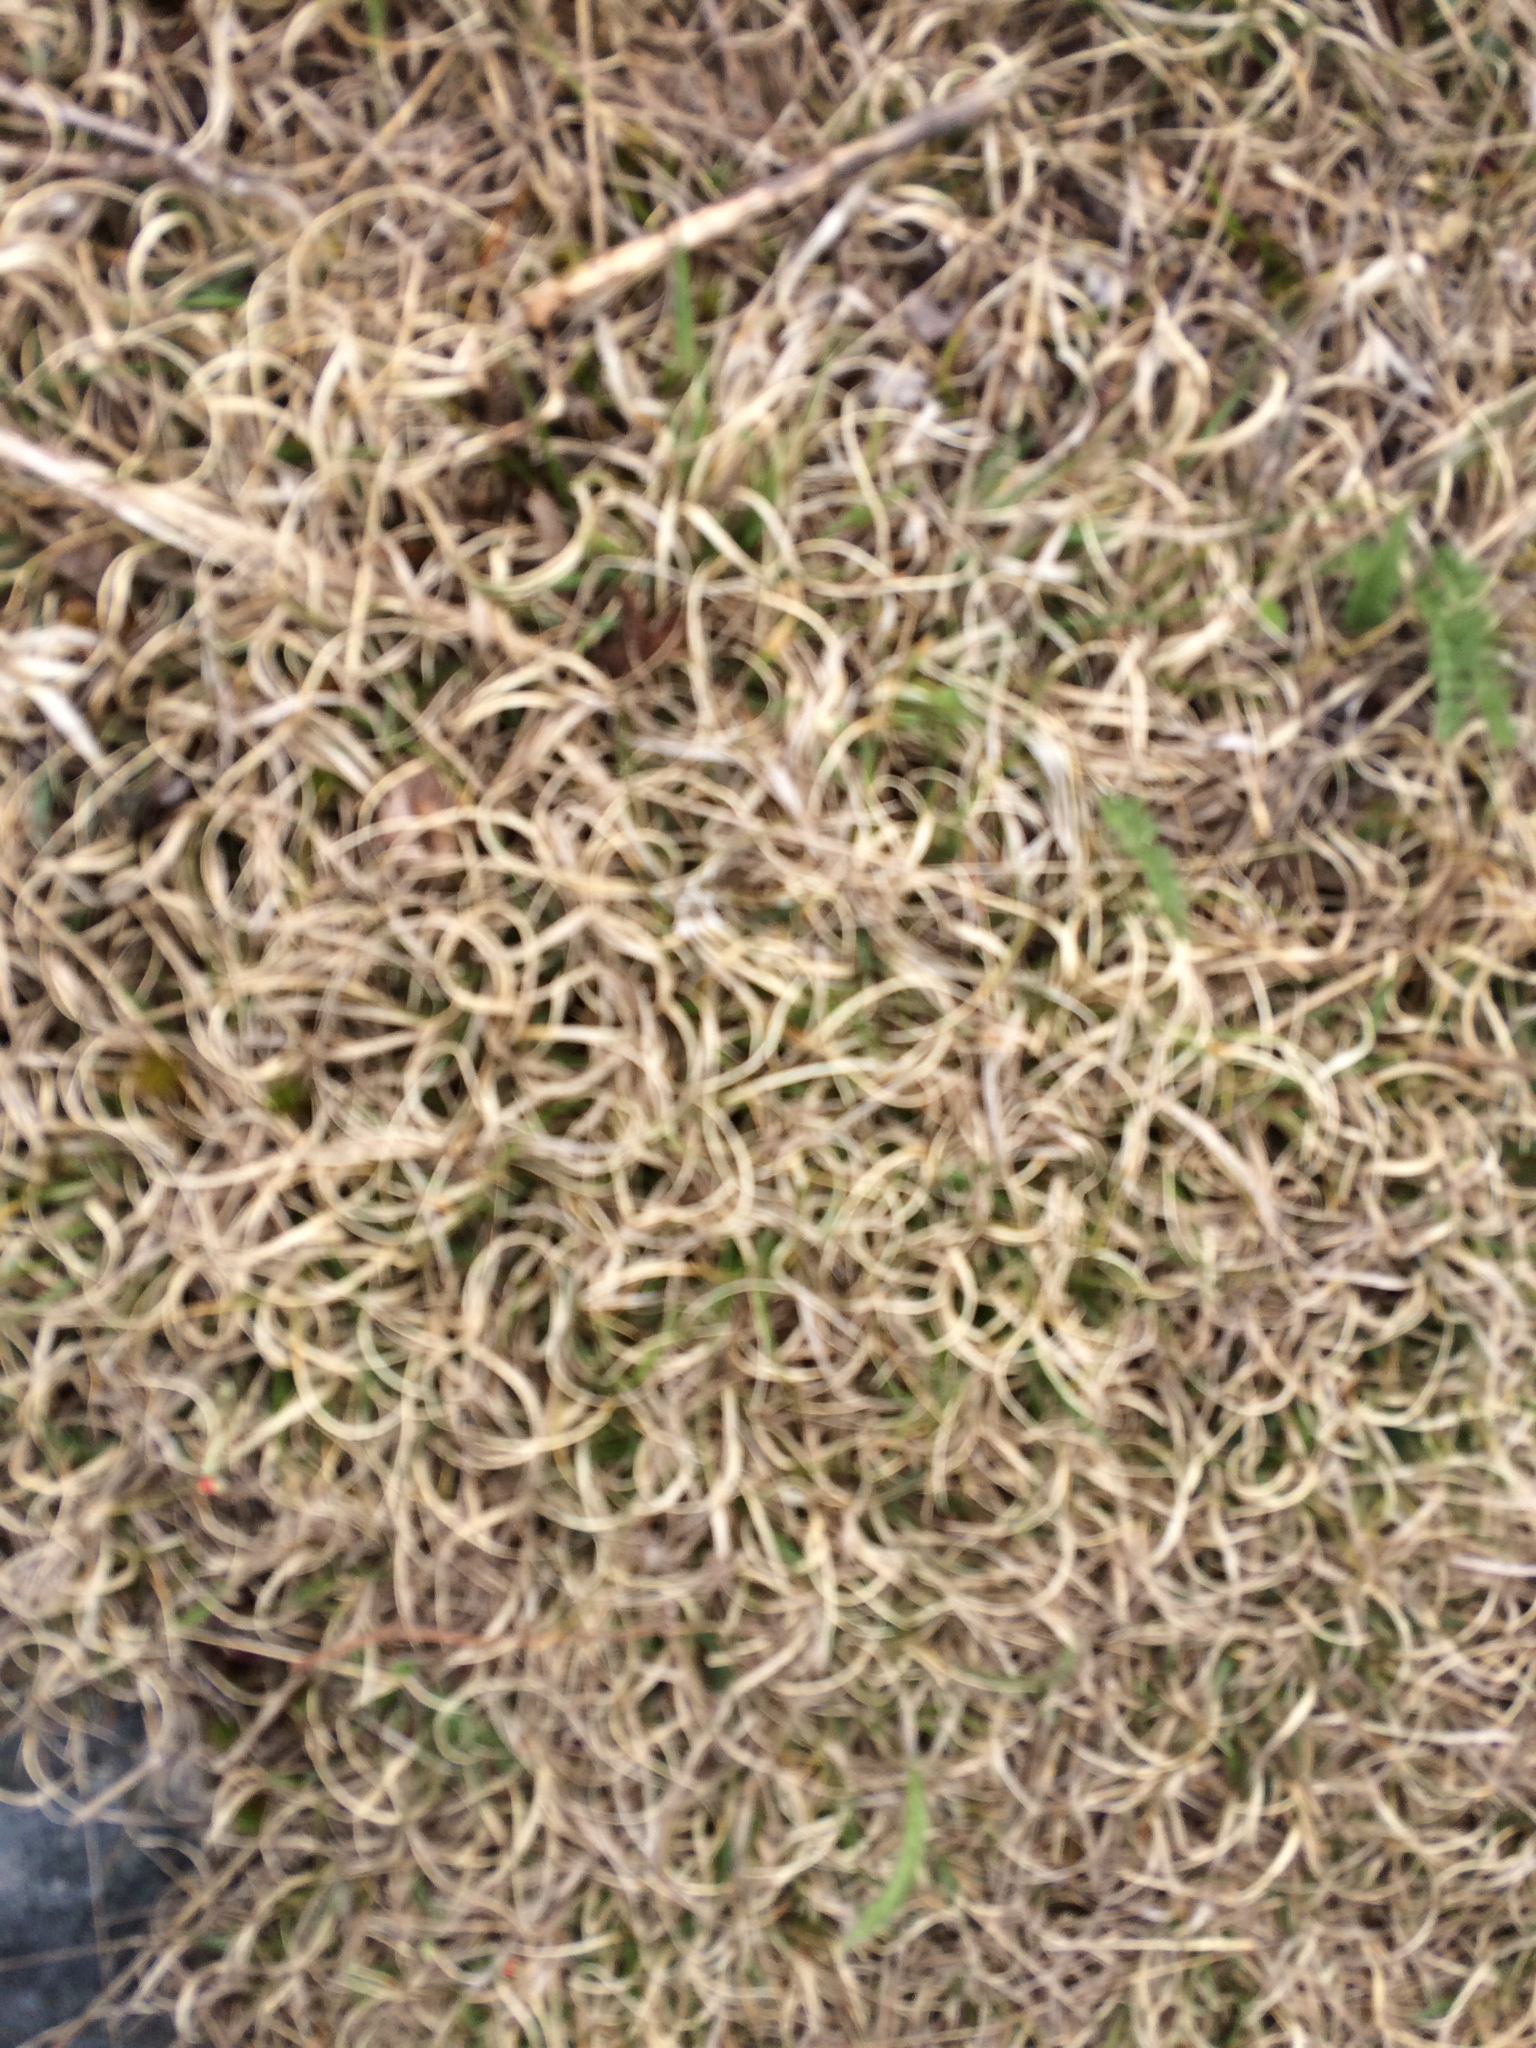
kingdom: Plantae
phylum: Tracheophyta
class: Liliopsida
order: Poales
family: Poaceae
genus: Danthonia
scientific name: Danthonia spicata
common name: Common wild oatgrass
